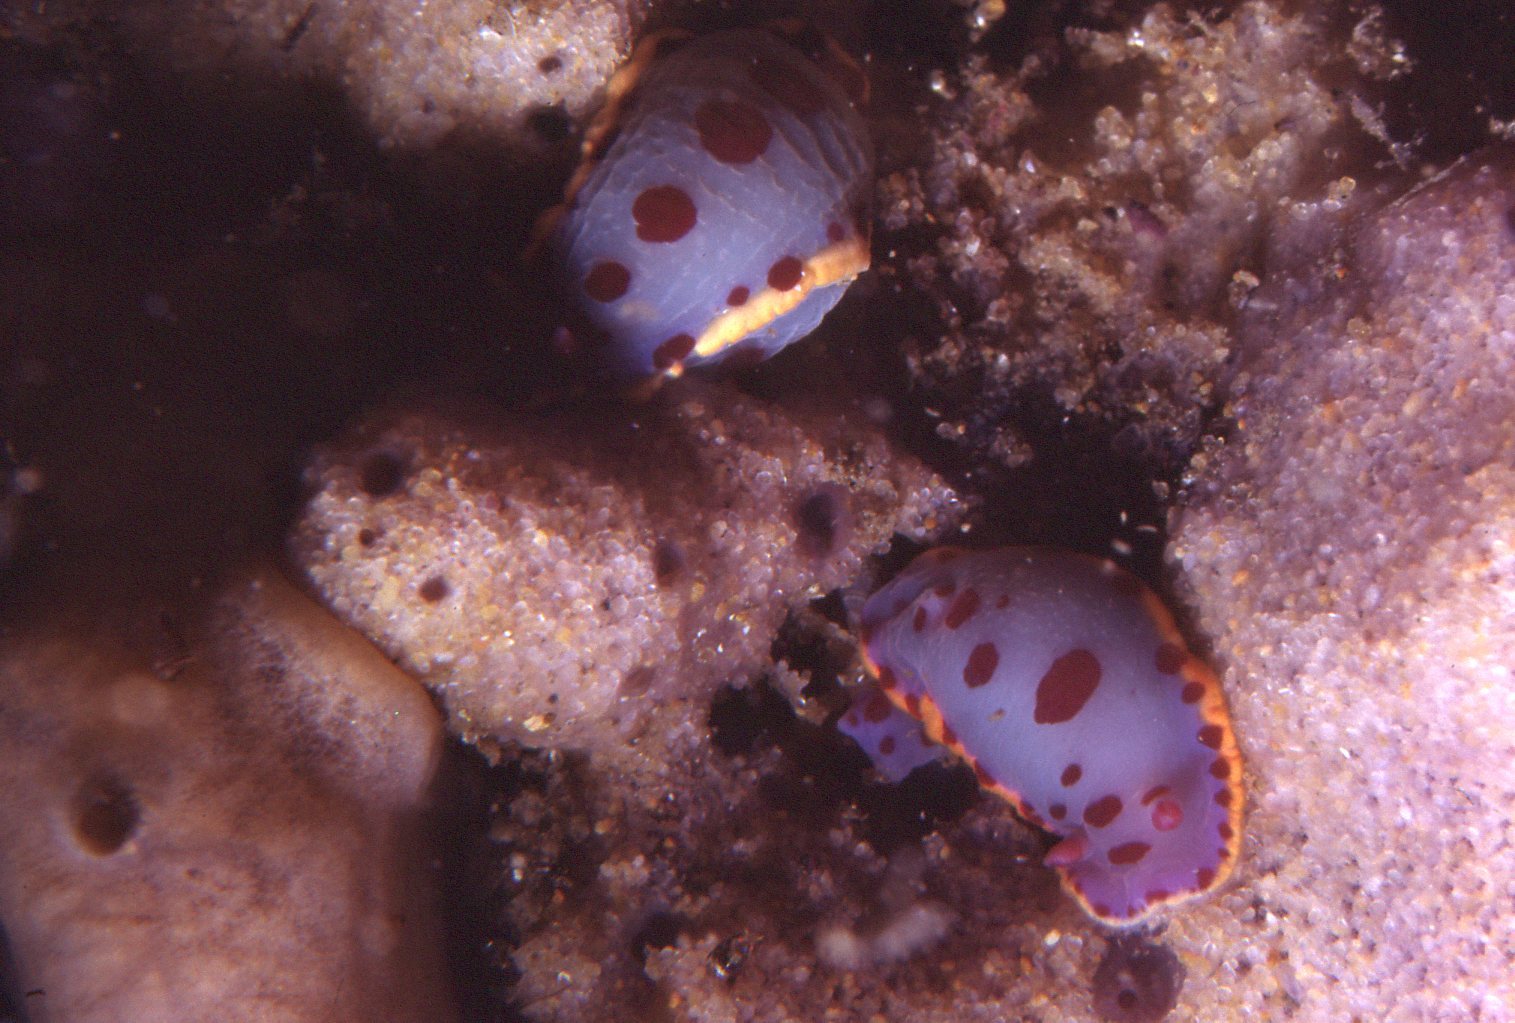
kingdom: Animalia
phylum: Mollusca
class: Gastropoda
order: Nudibranchia
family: Chromodorididae
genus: Hypselodoris
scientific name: Hypselodoris bennetti
